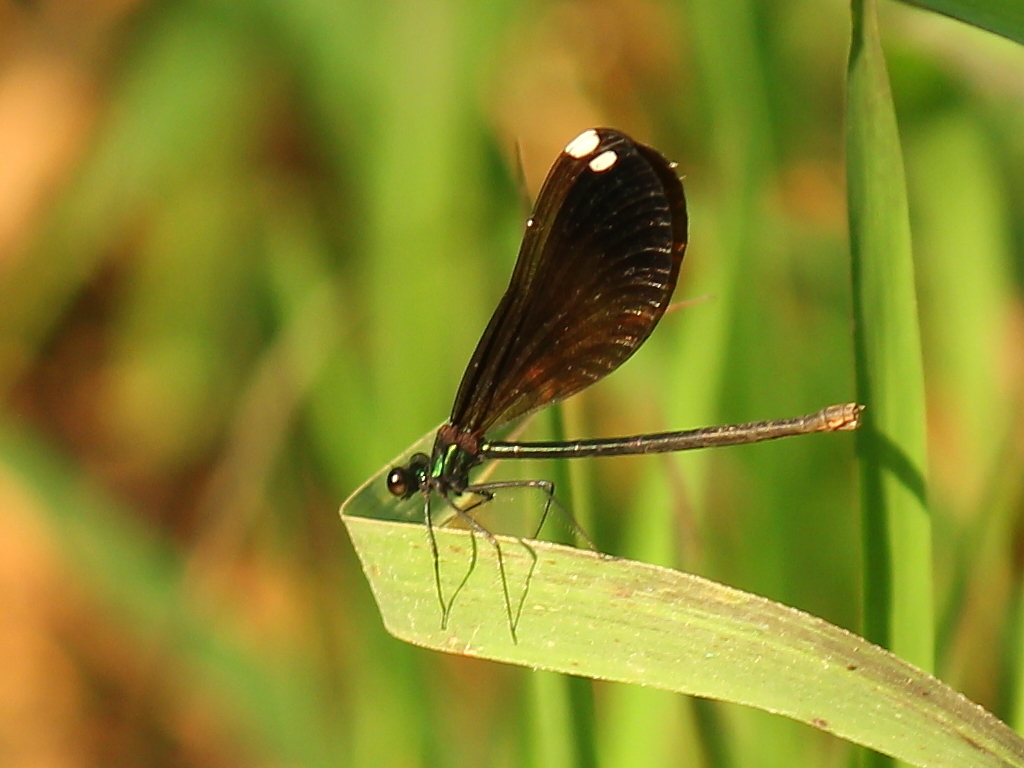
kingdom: Animalia
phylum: Arthropoda
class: Insecta
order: Odonata
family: Calopterygidae
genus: Calopteryx
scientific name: Calopteryx maculata
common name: Ebony jewelwing
